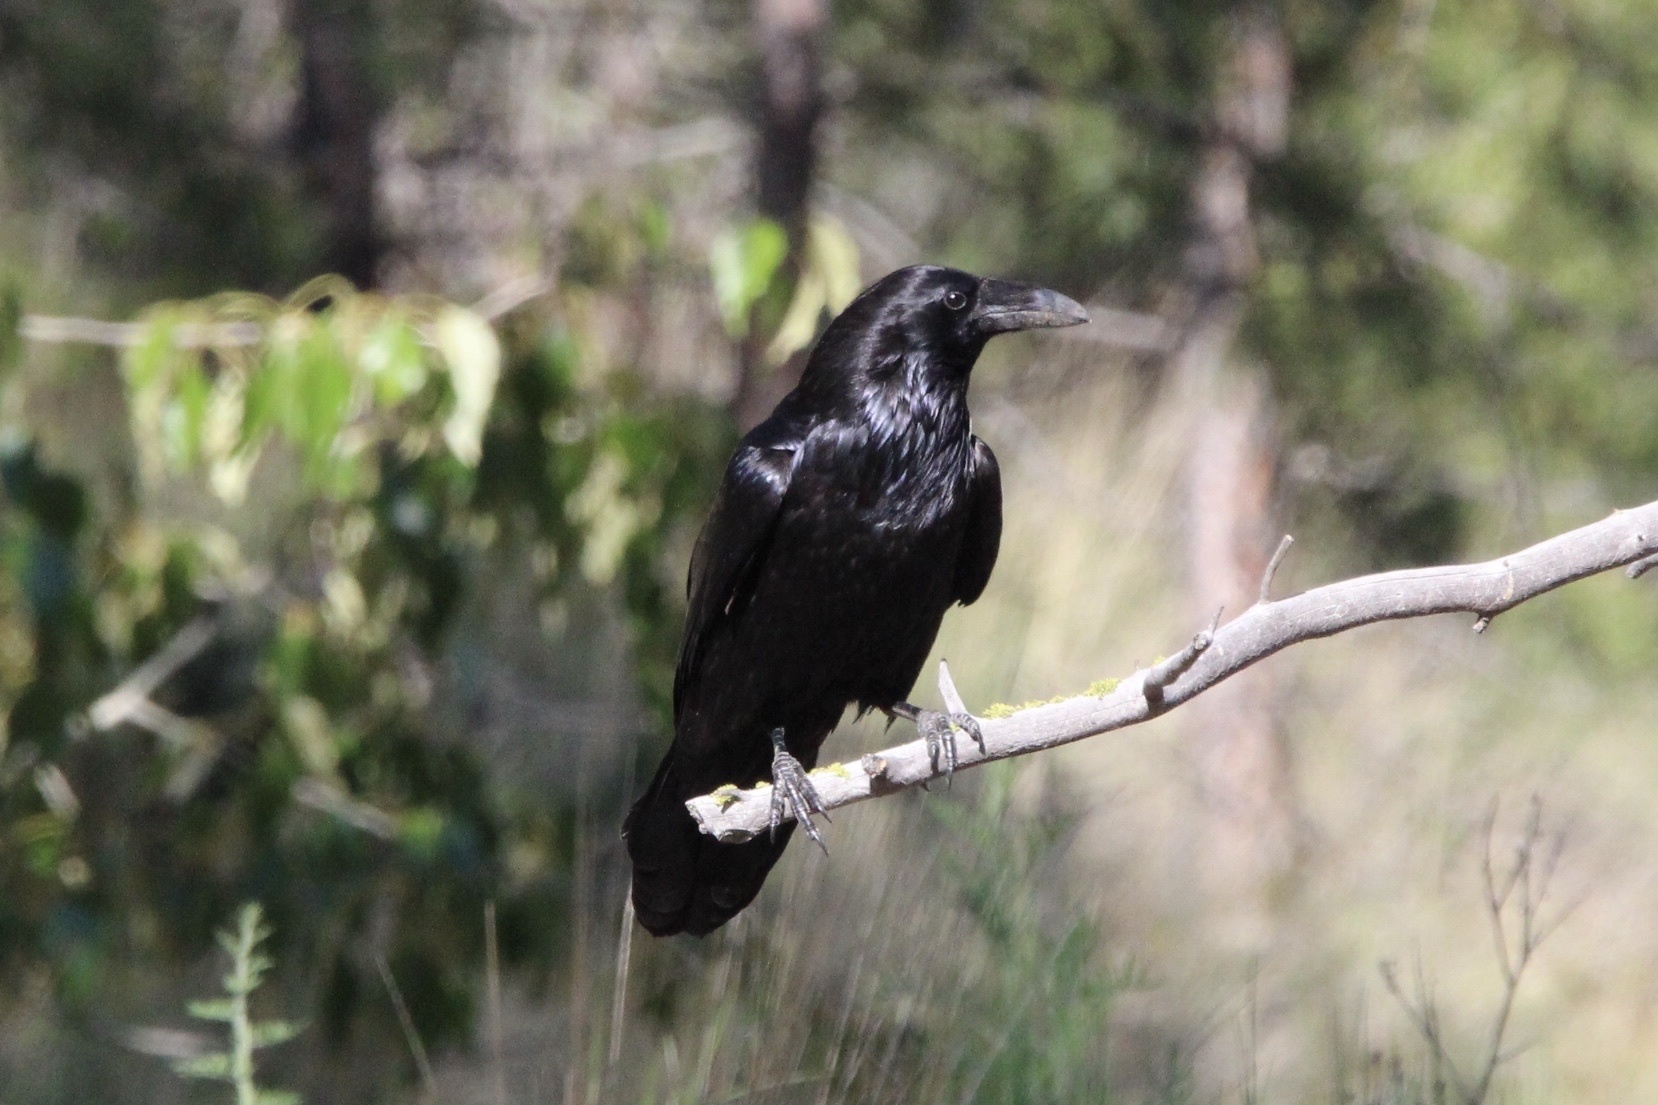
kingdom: Animalia
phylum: Chordata
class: Aves
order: Passeriformes
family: Corvidae
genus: Corvus
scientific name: Corvus corax
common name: Common raven
